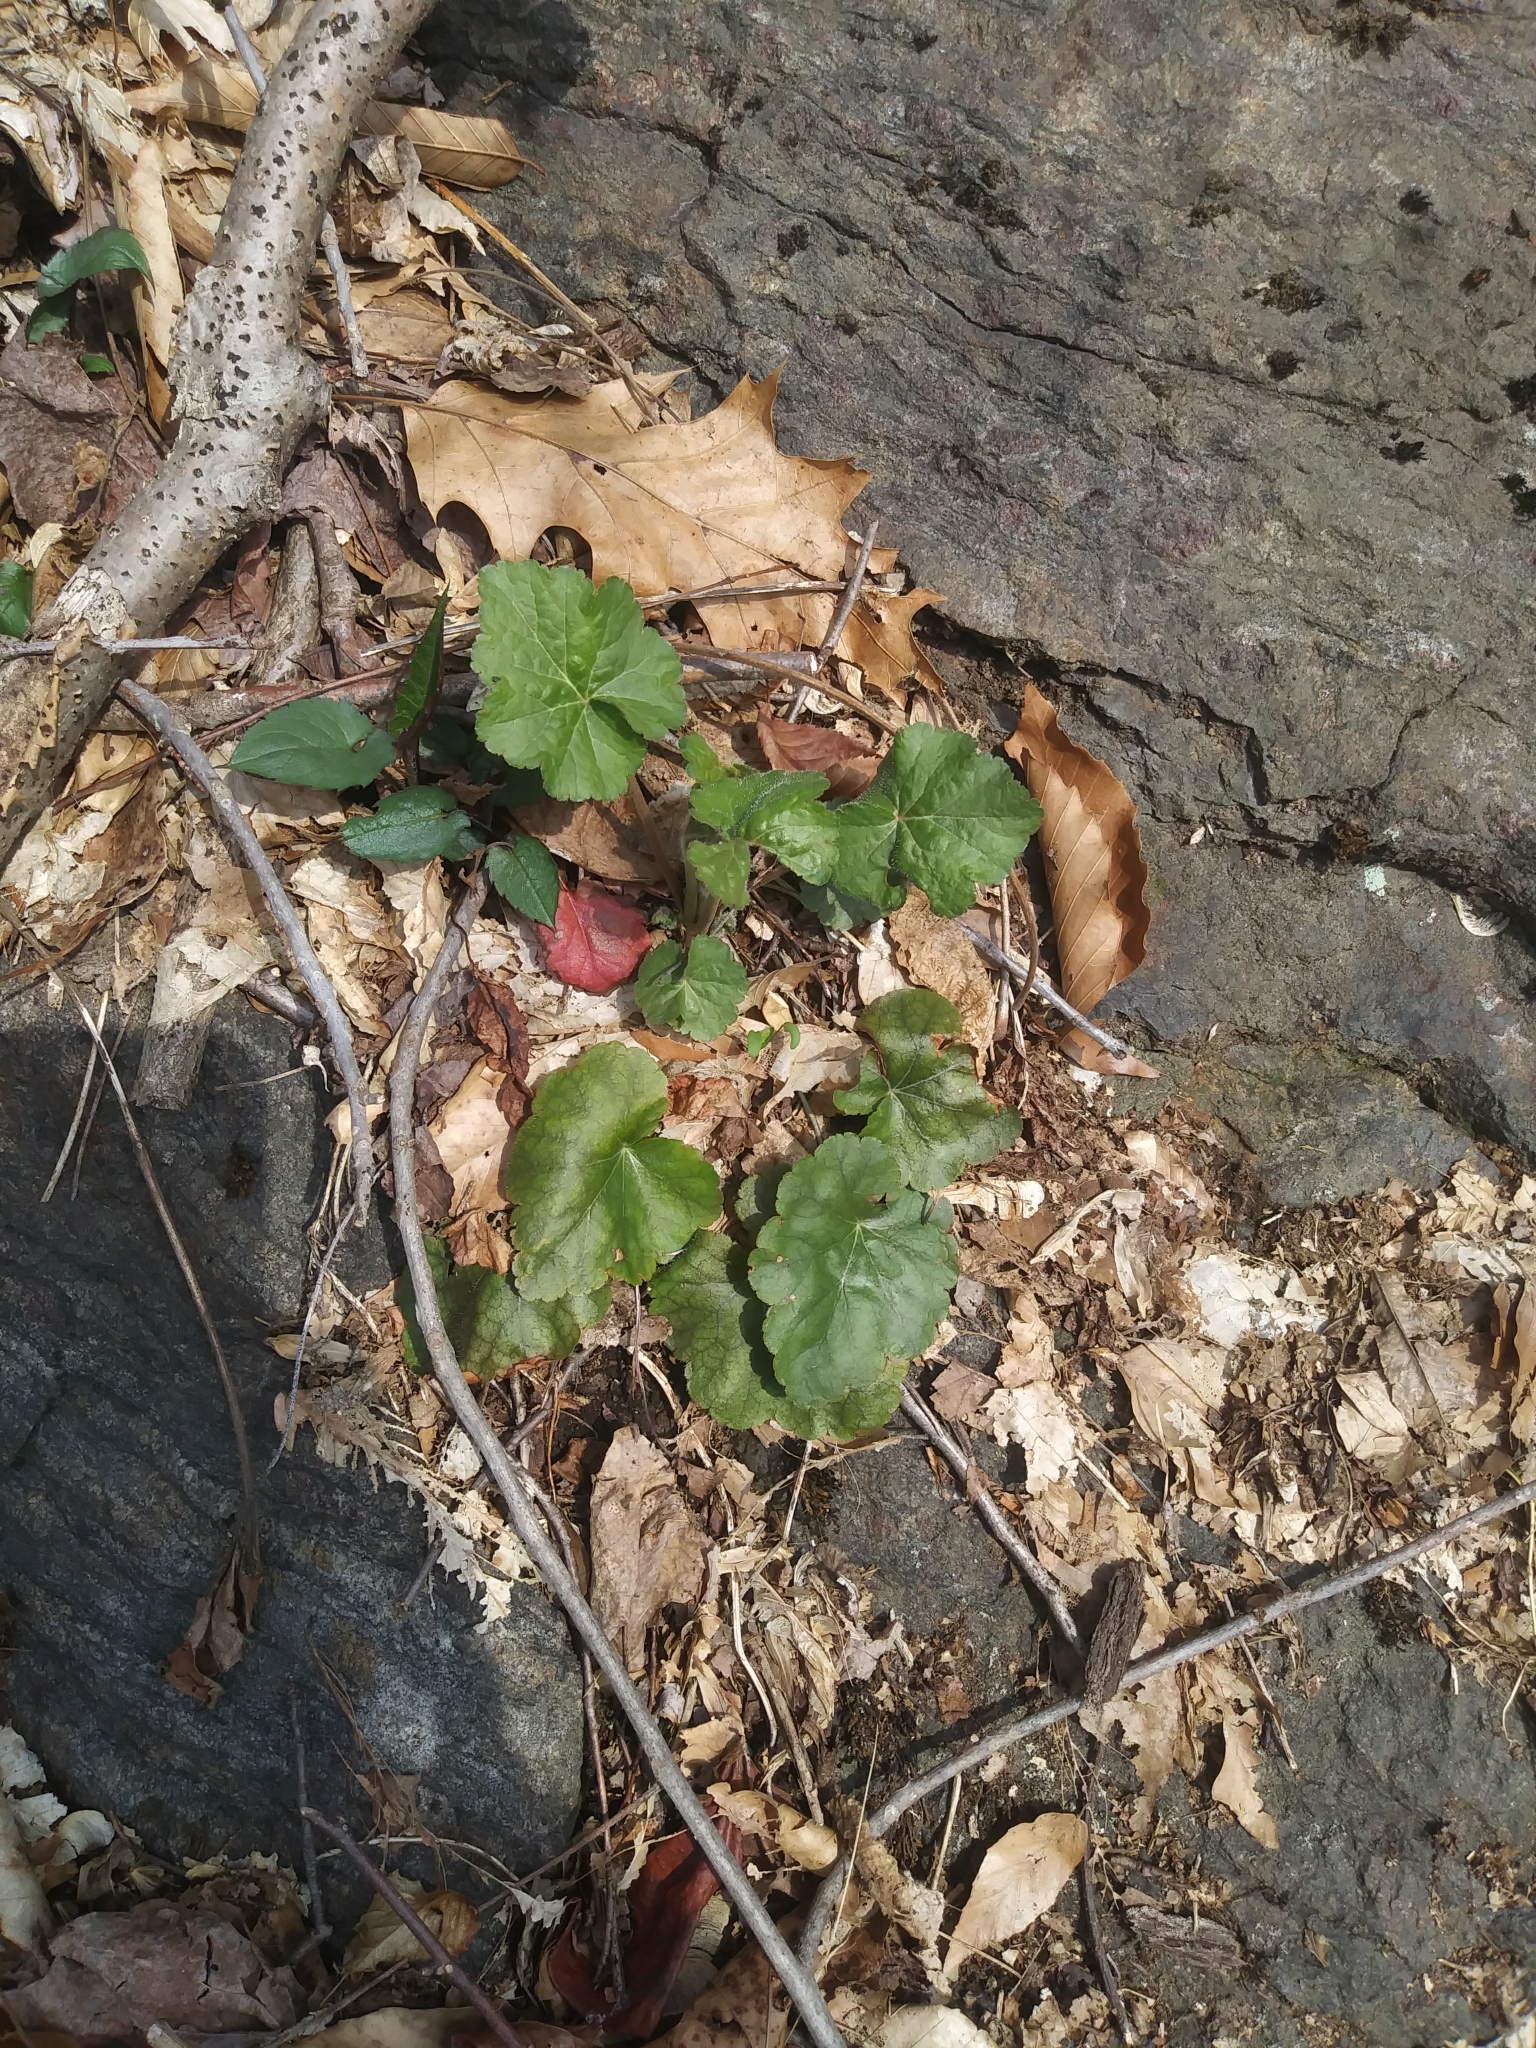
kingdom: Plantae
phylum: Tracheophyta
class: Magnoliopsida
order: Saxifragales
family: Saxifragaceae
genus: Heuchera
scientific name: Heuchera americana
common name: Alumroot
